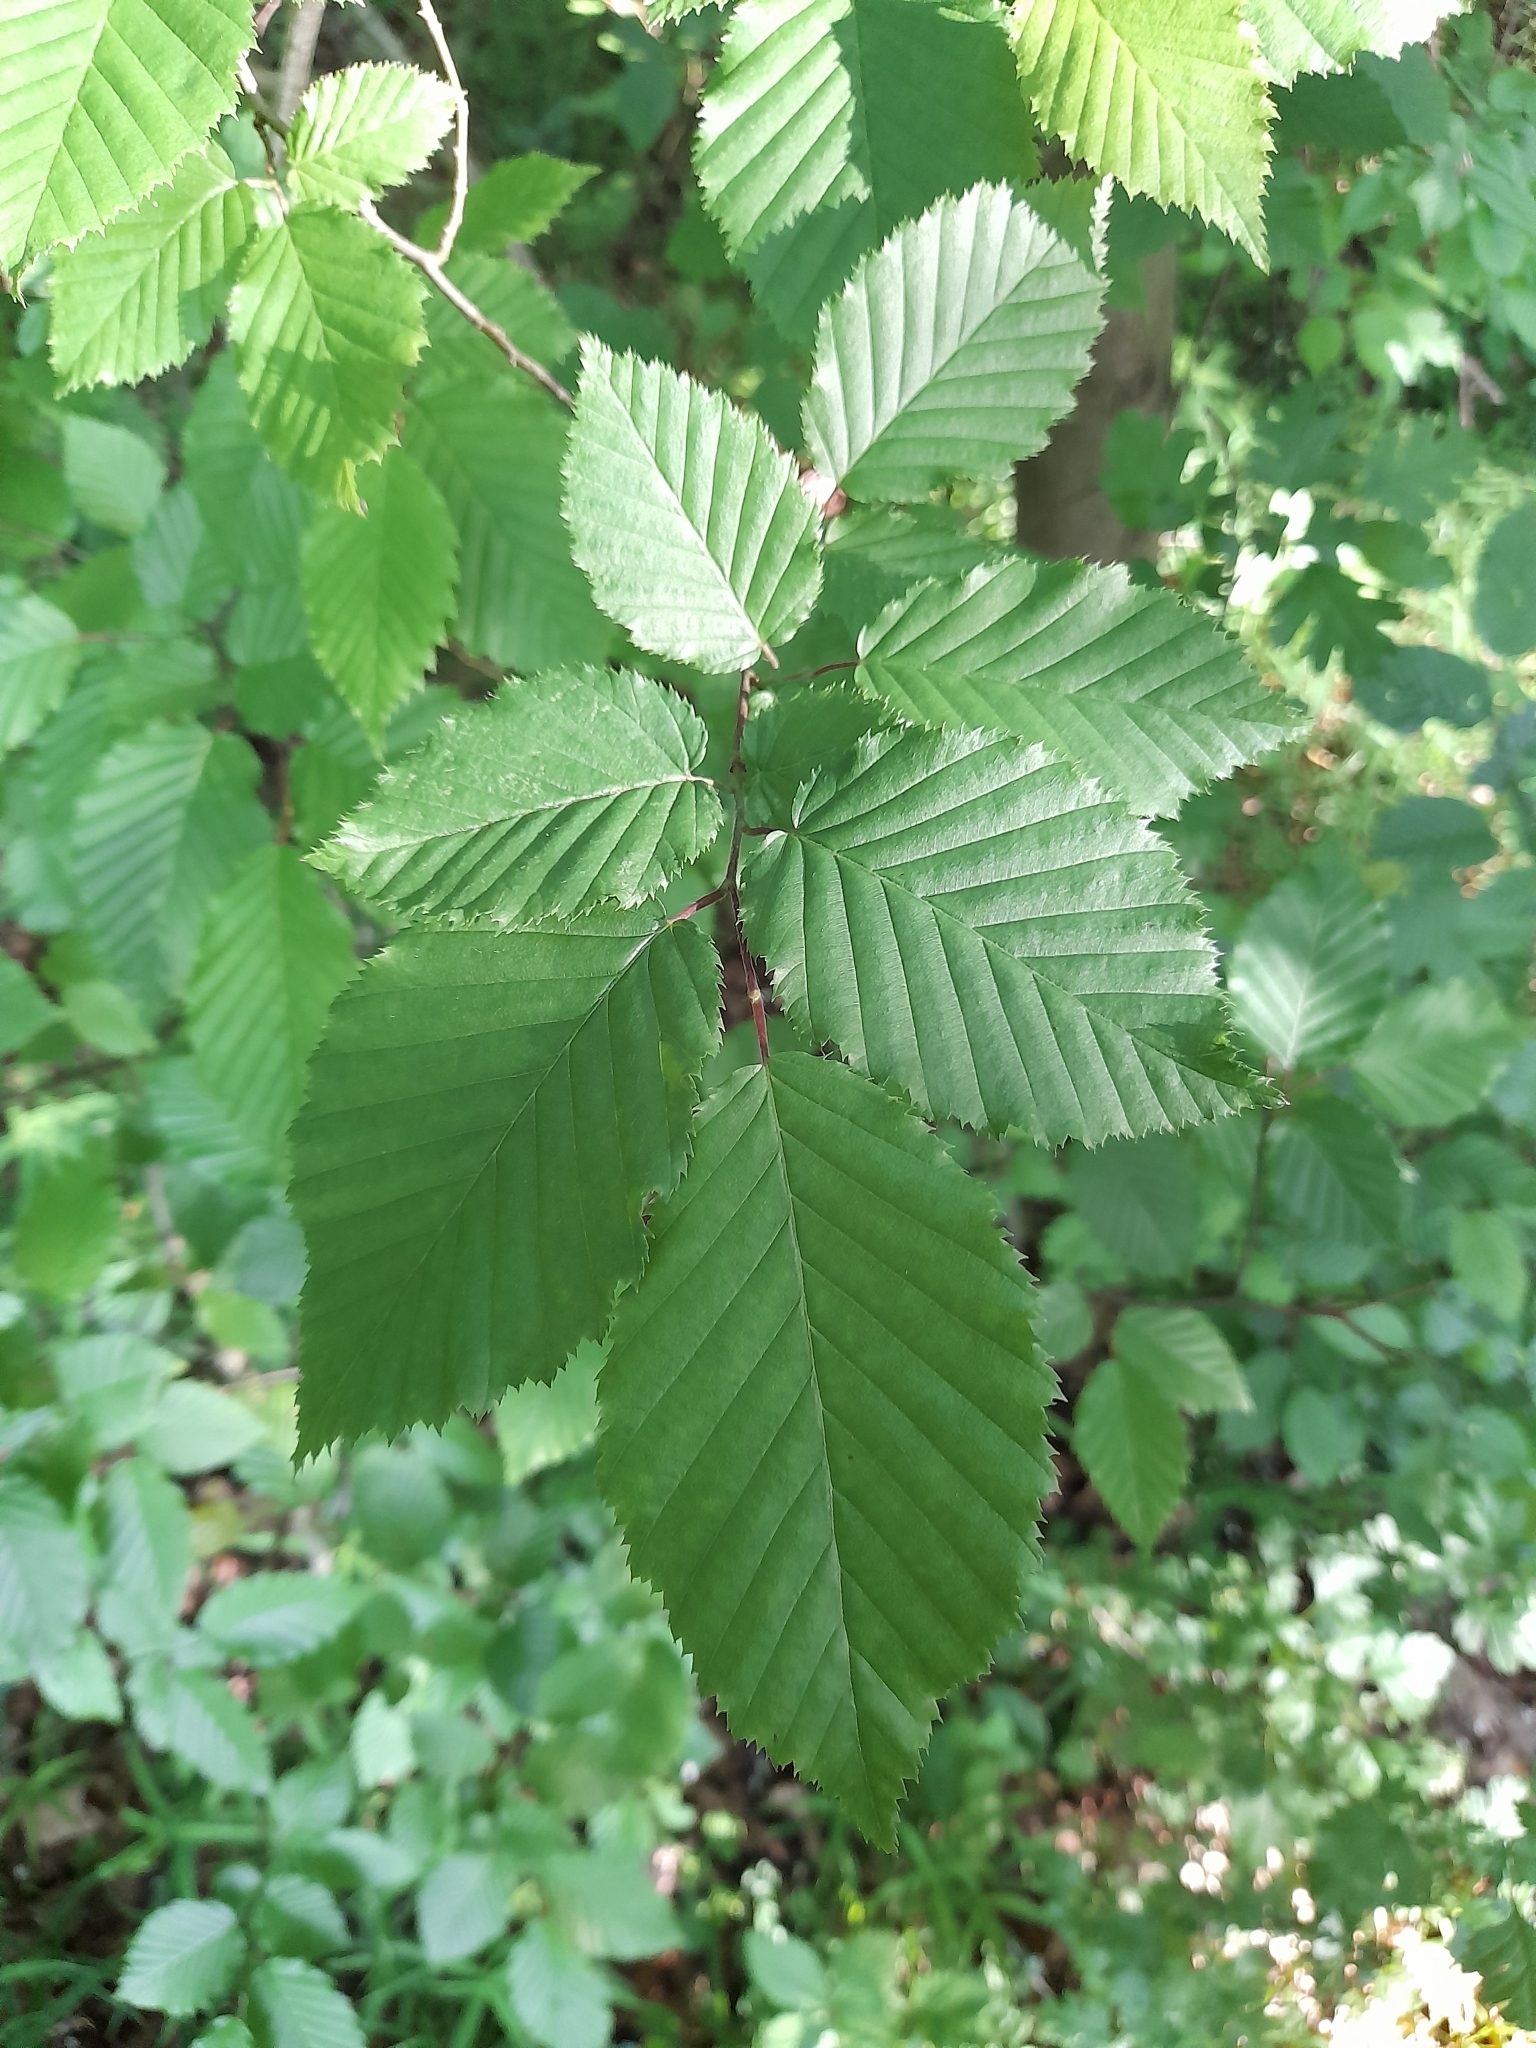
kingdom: Plantae
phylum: Tracheophyta
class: Magnoliopsida
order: Fagales
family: Betulaceae
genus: Carpinus
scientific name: Carpinus betulus
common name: Hornbeam
